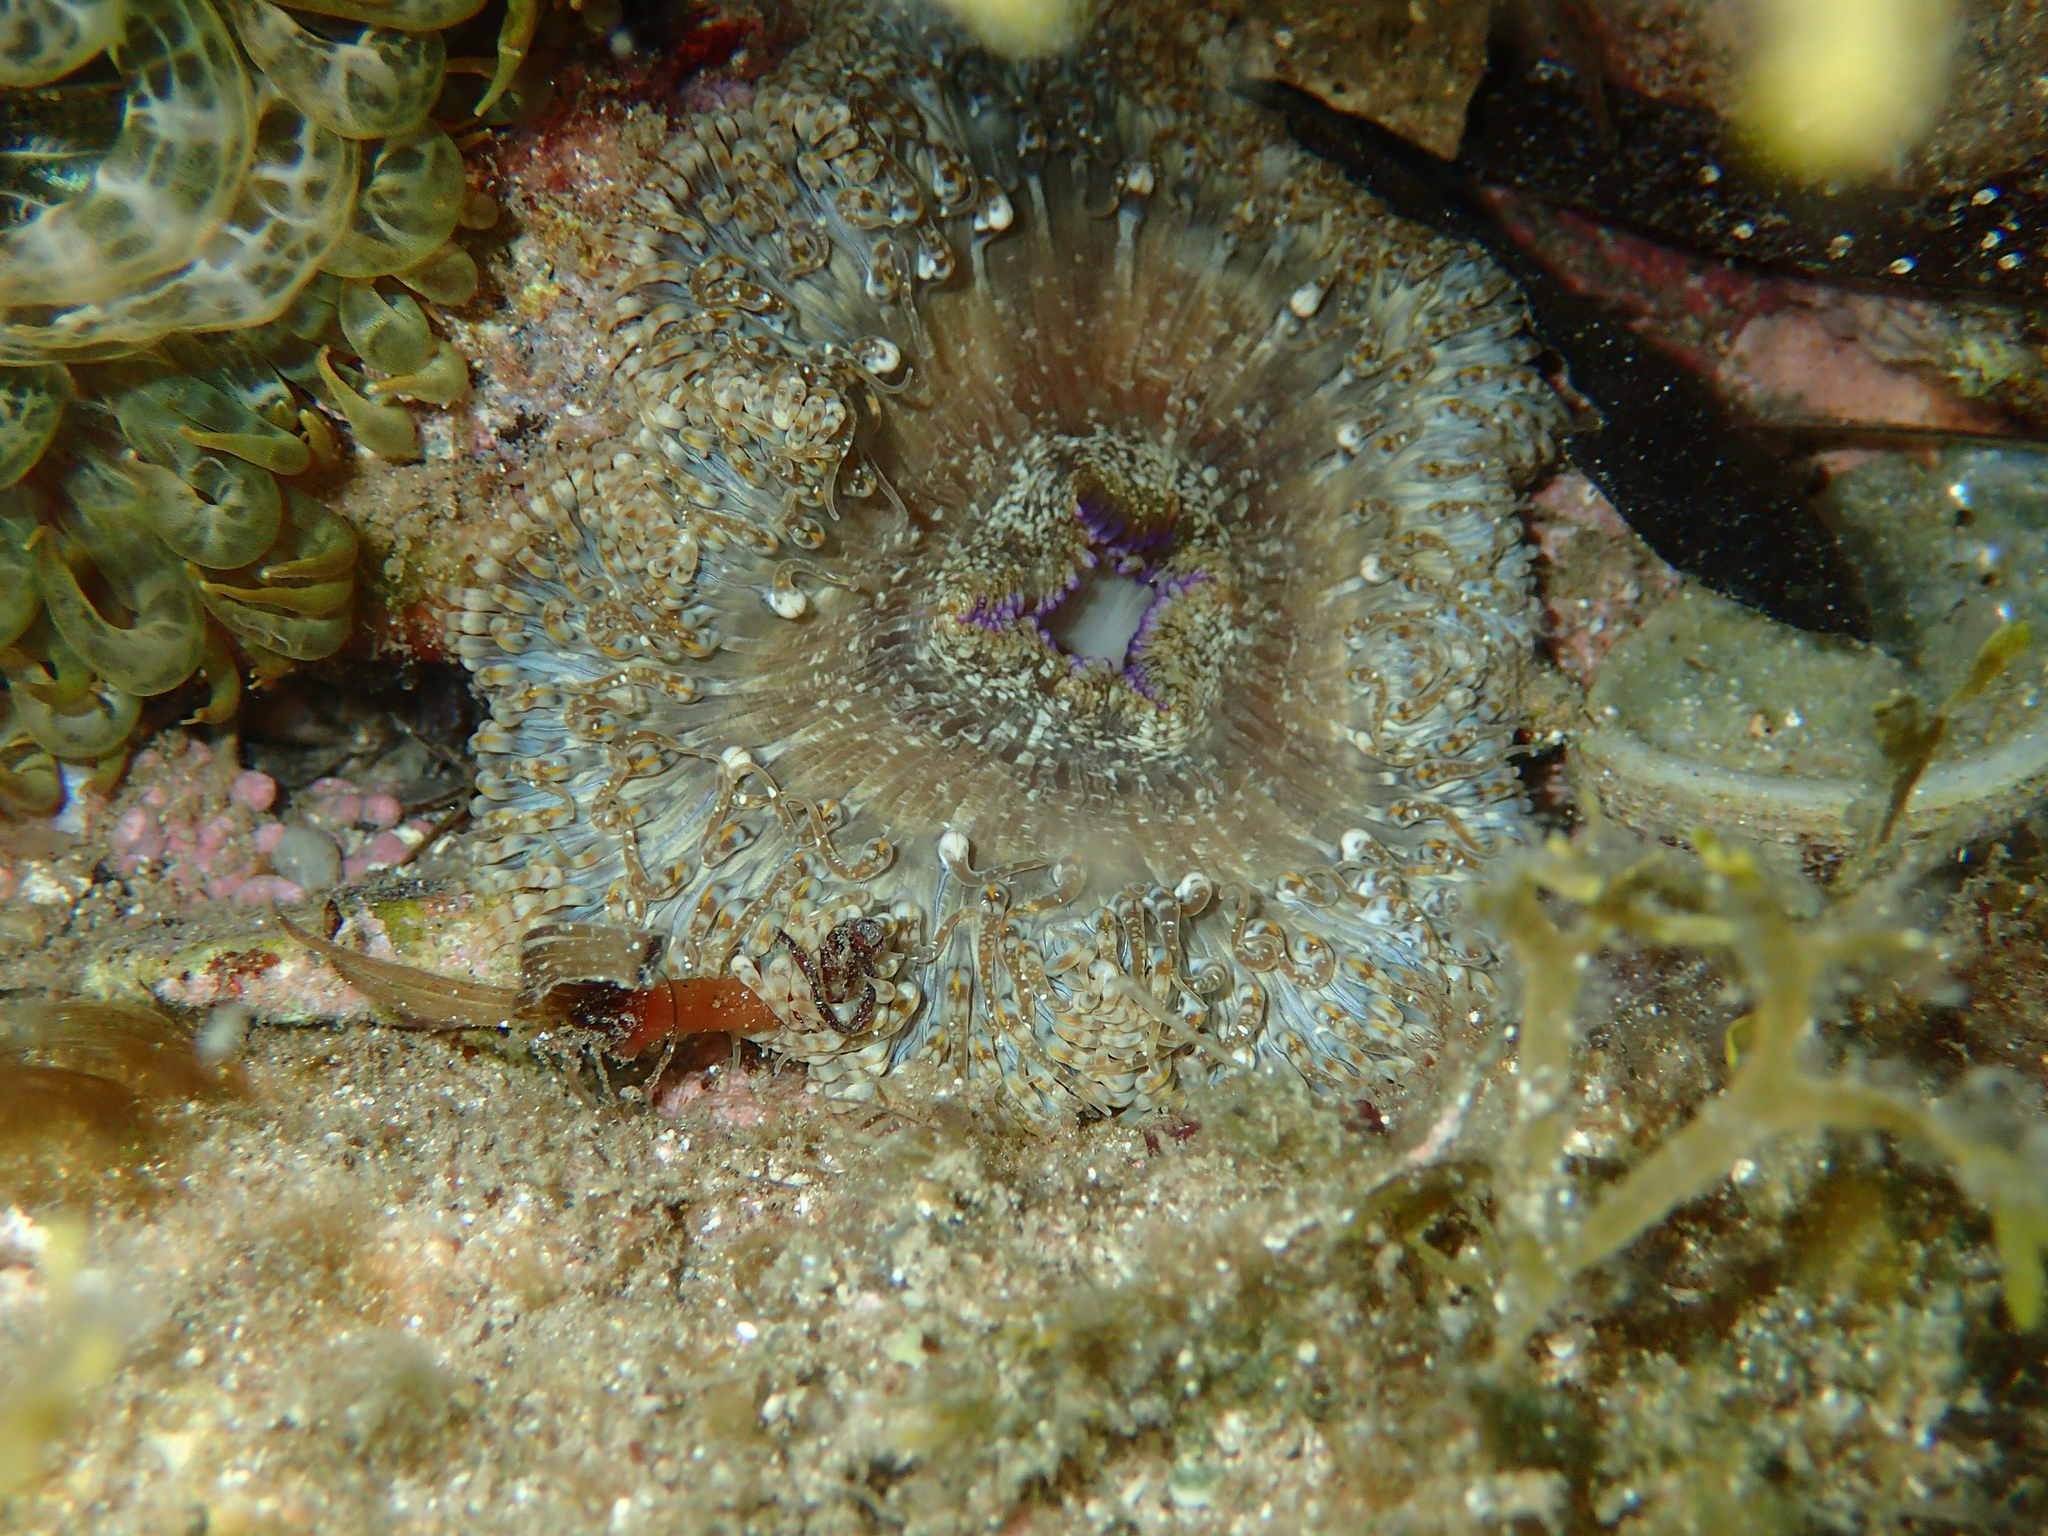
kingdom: Animalia
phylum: Cnidaria
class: Anthozoa
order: Actiniaria
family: Sagartiidae
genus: Cereus
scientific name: Cereus pedunculatus
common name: Daisy anemone
